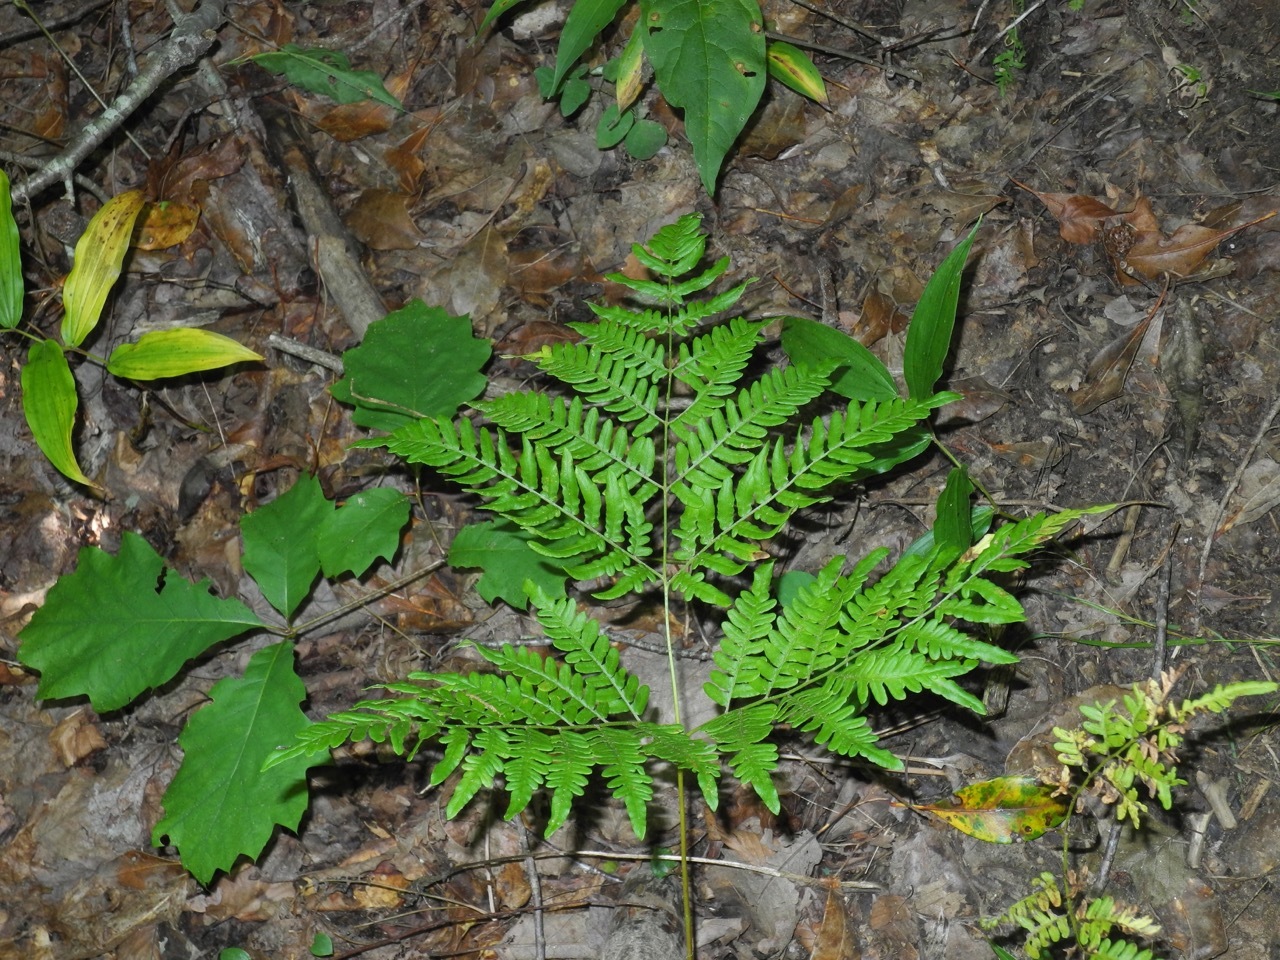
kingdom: Plantae
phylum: Tracheophyta
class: Polypodiopsida
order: Polypodiales
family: Dennstaedtiaceae
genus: Pteridium
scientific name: Pteridium aquilinum
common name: Bracken
